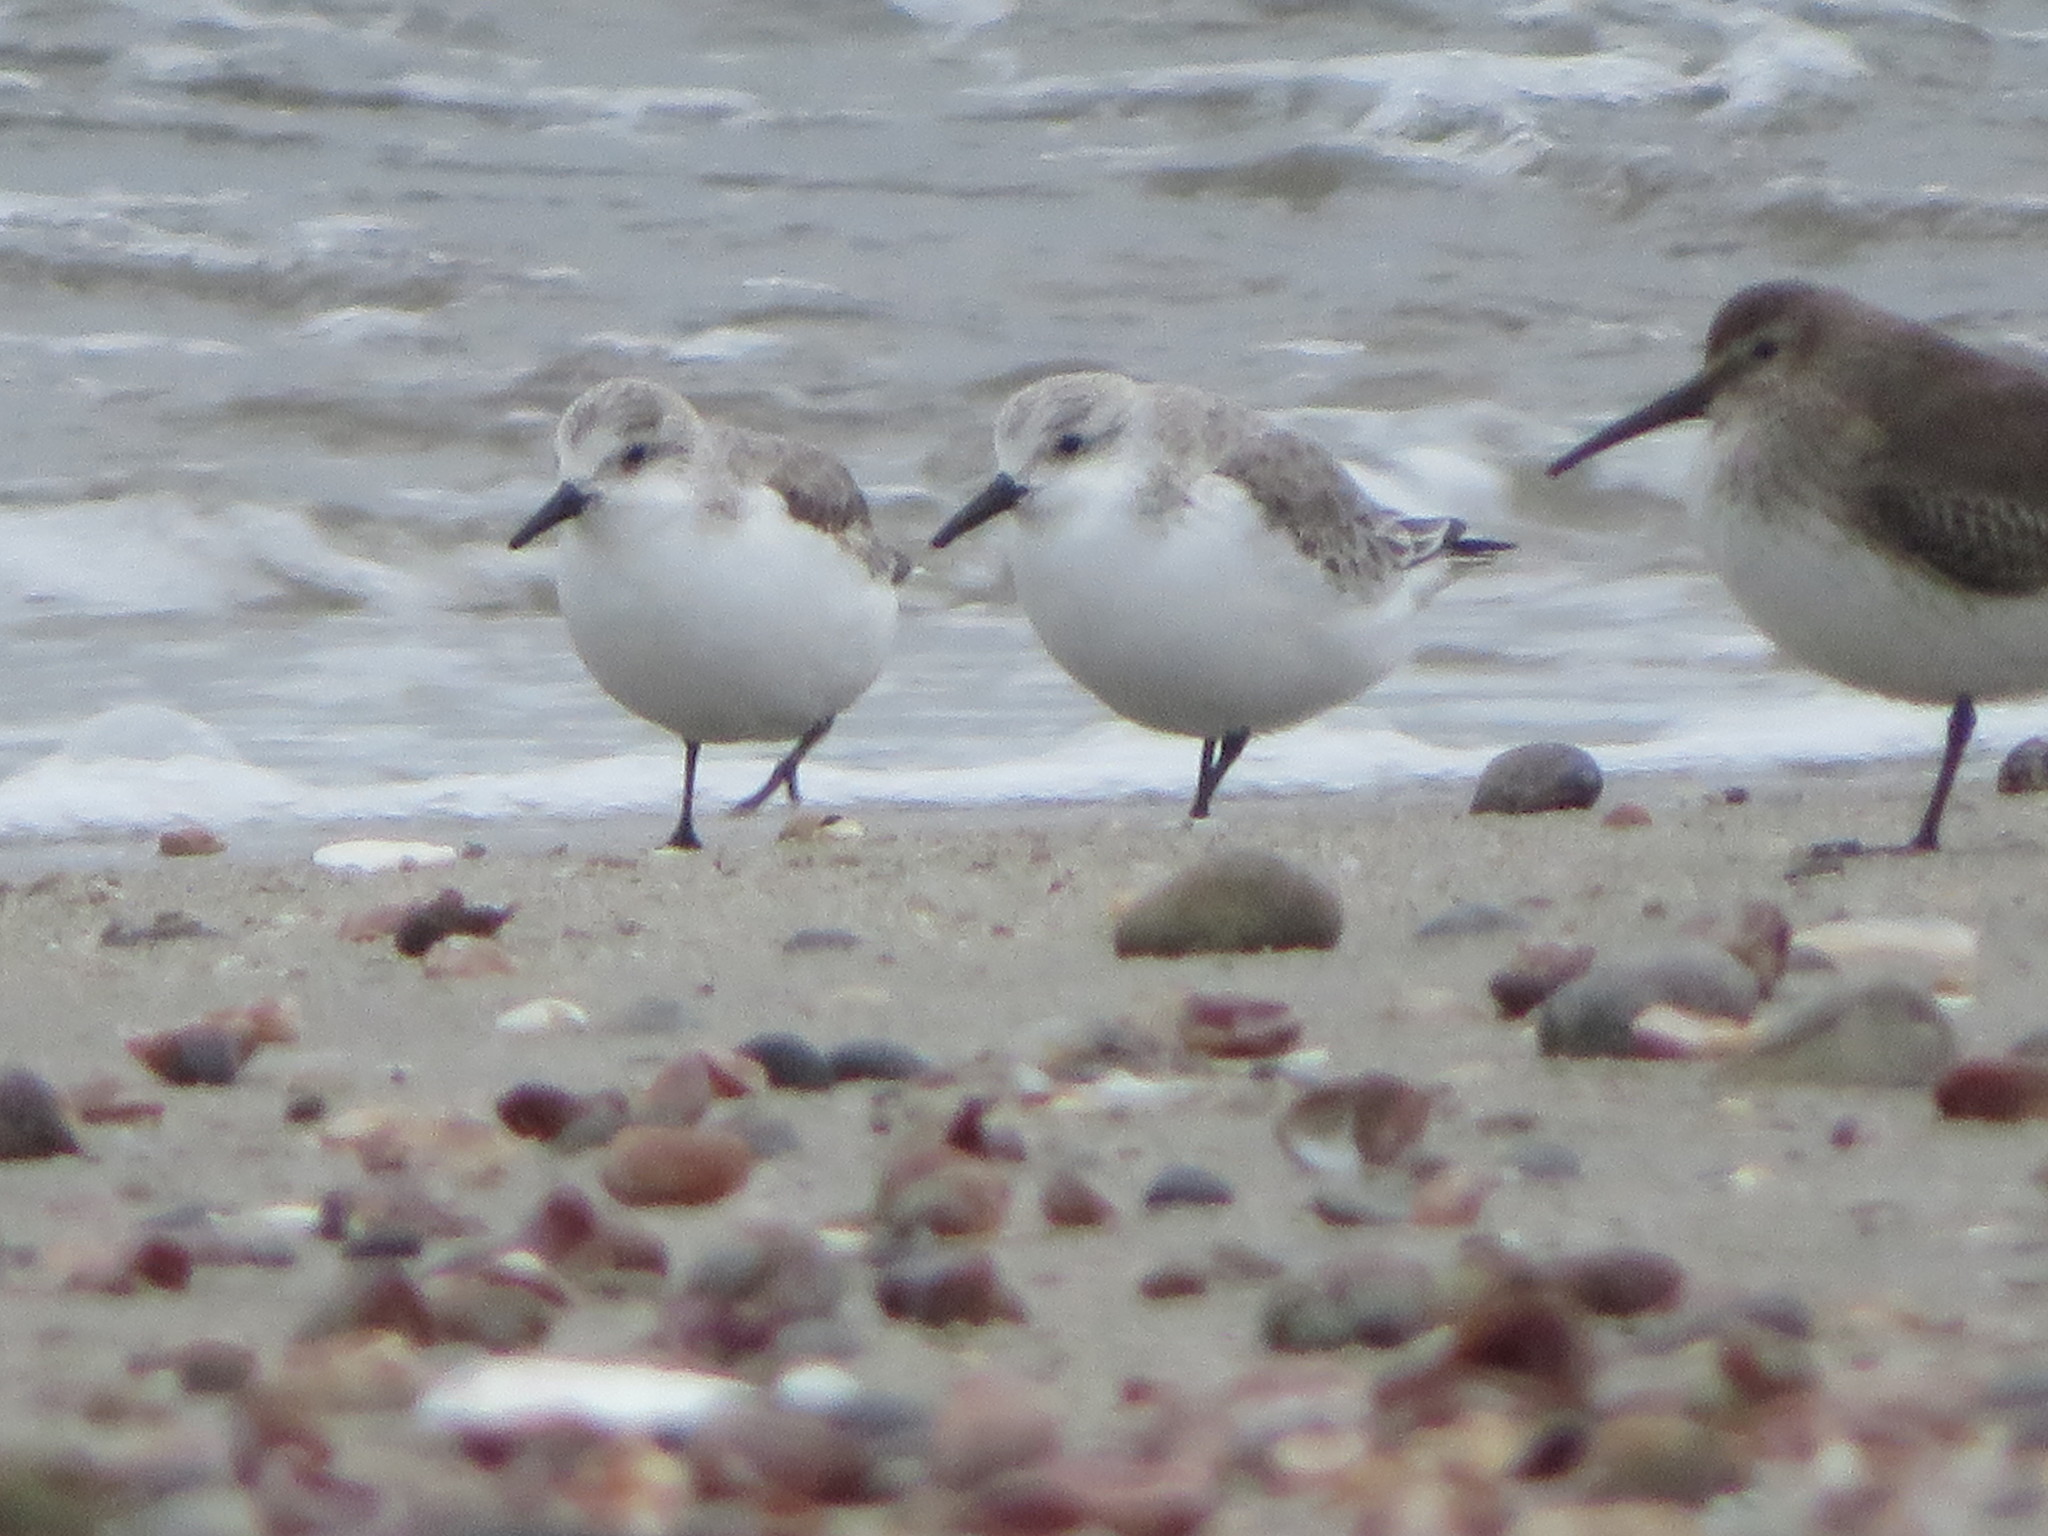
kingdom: Animalia
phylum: Chordata
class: Aves
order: Charadriiformes
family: Scolopacidae
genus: Calidris
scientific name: Calidris alba
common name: Sanderling
